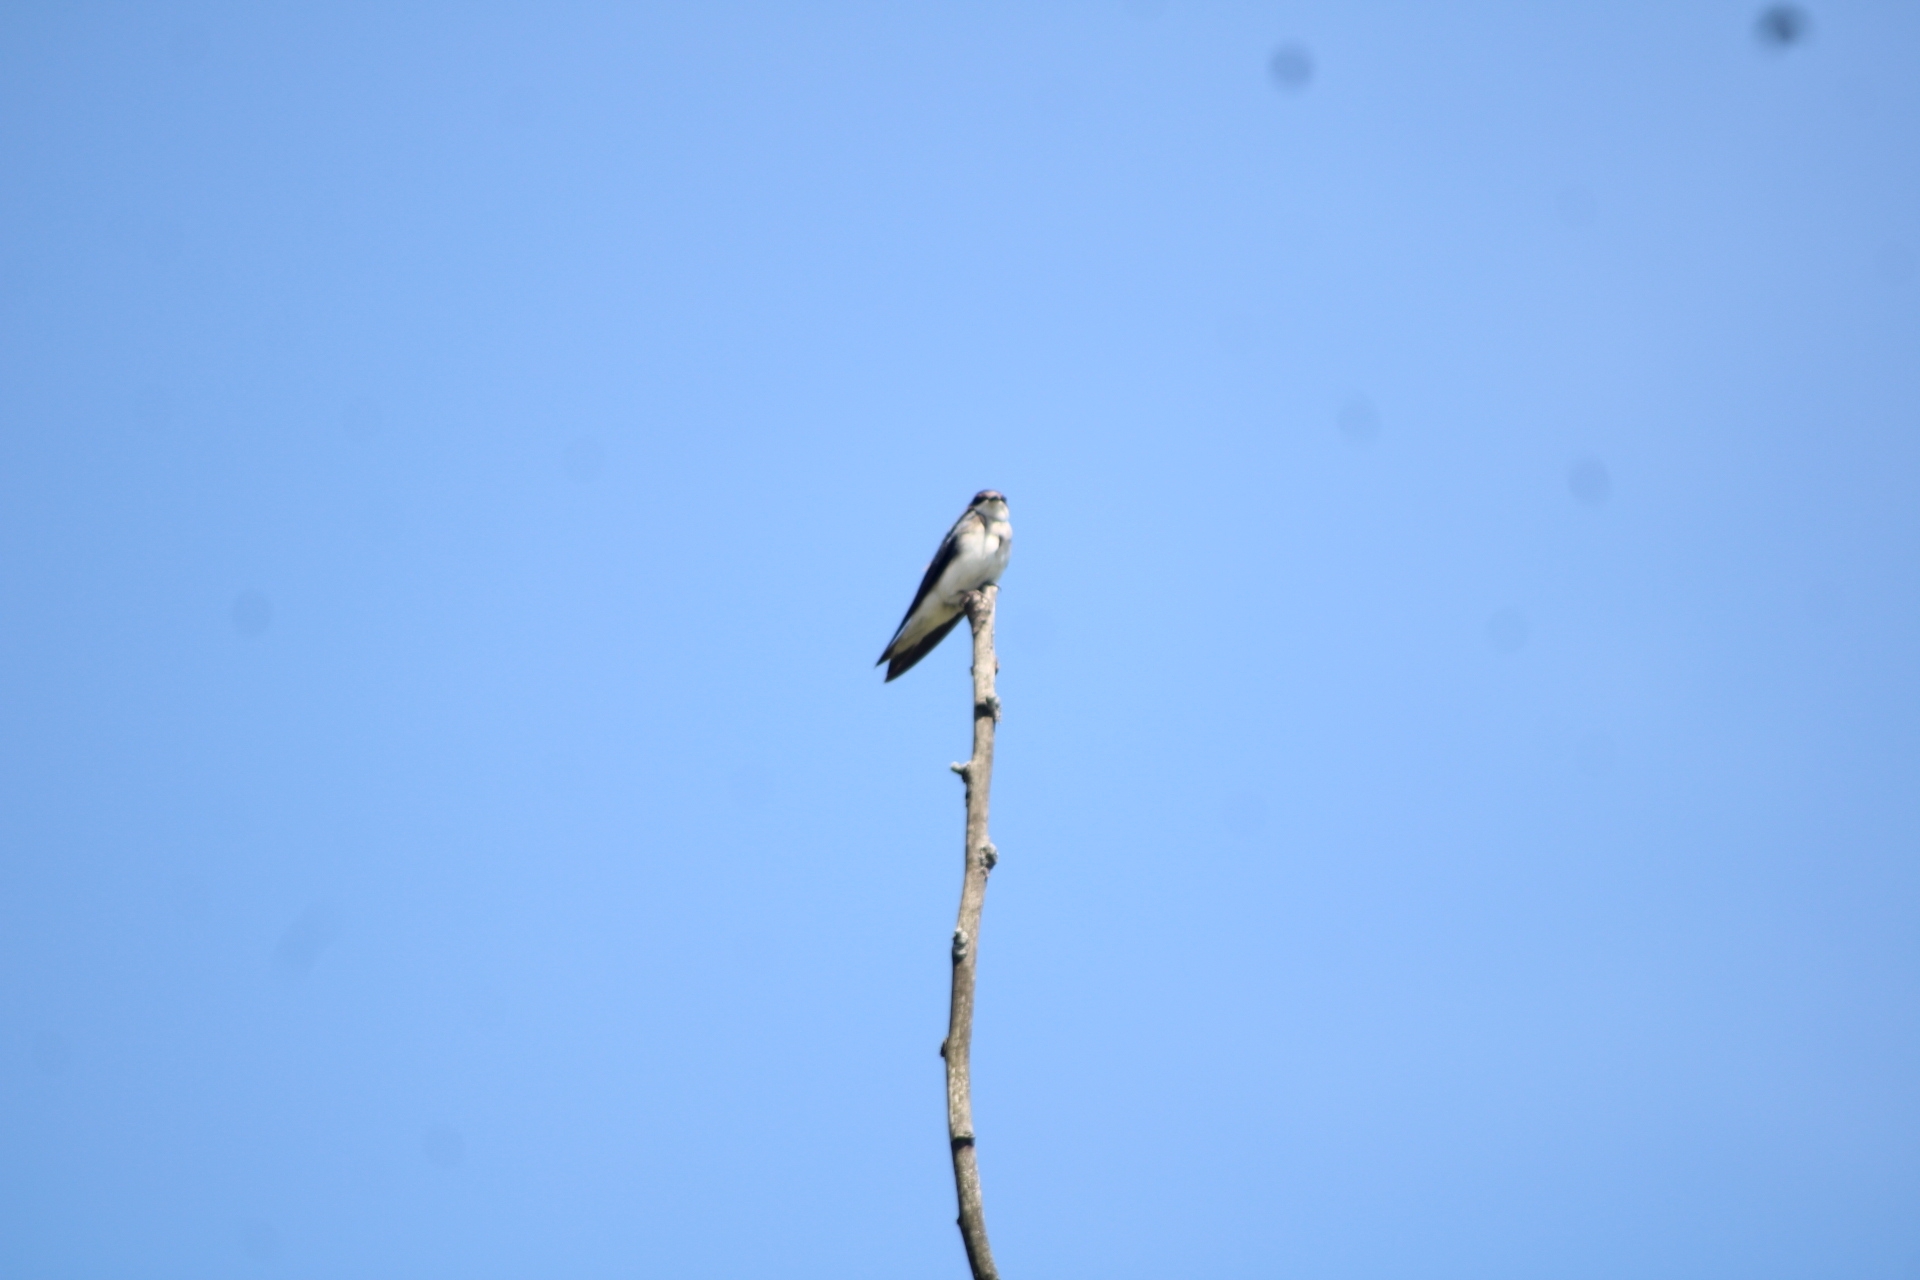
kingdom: Animalia
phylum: Chordata
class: Aves
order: Passeriformes
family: Hirundinidae
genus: Tachycineta
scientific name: Tachycineta bicolor
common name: Tree swallow
